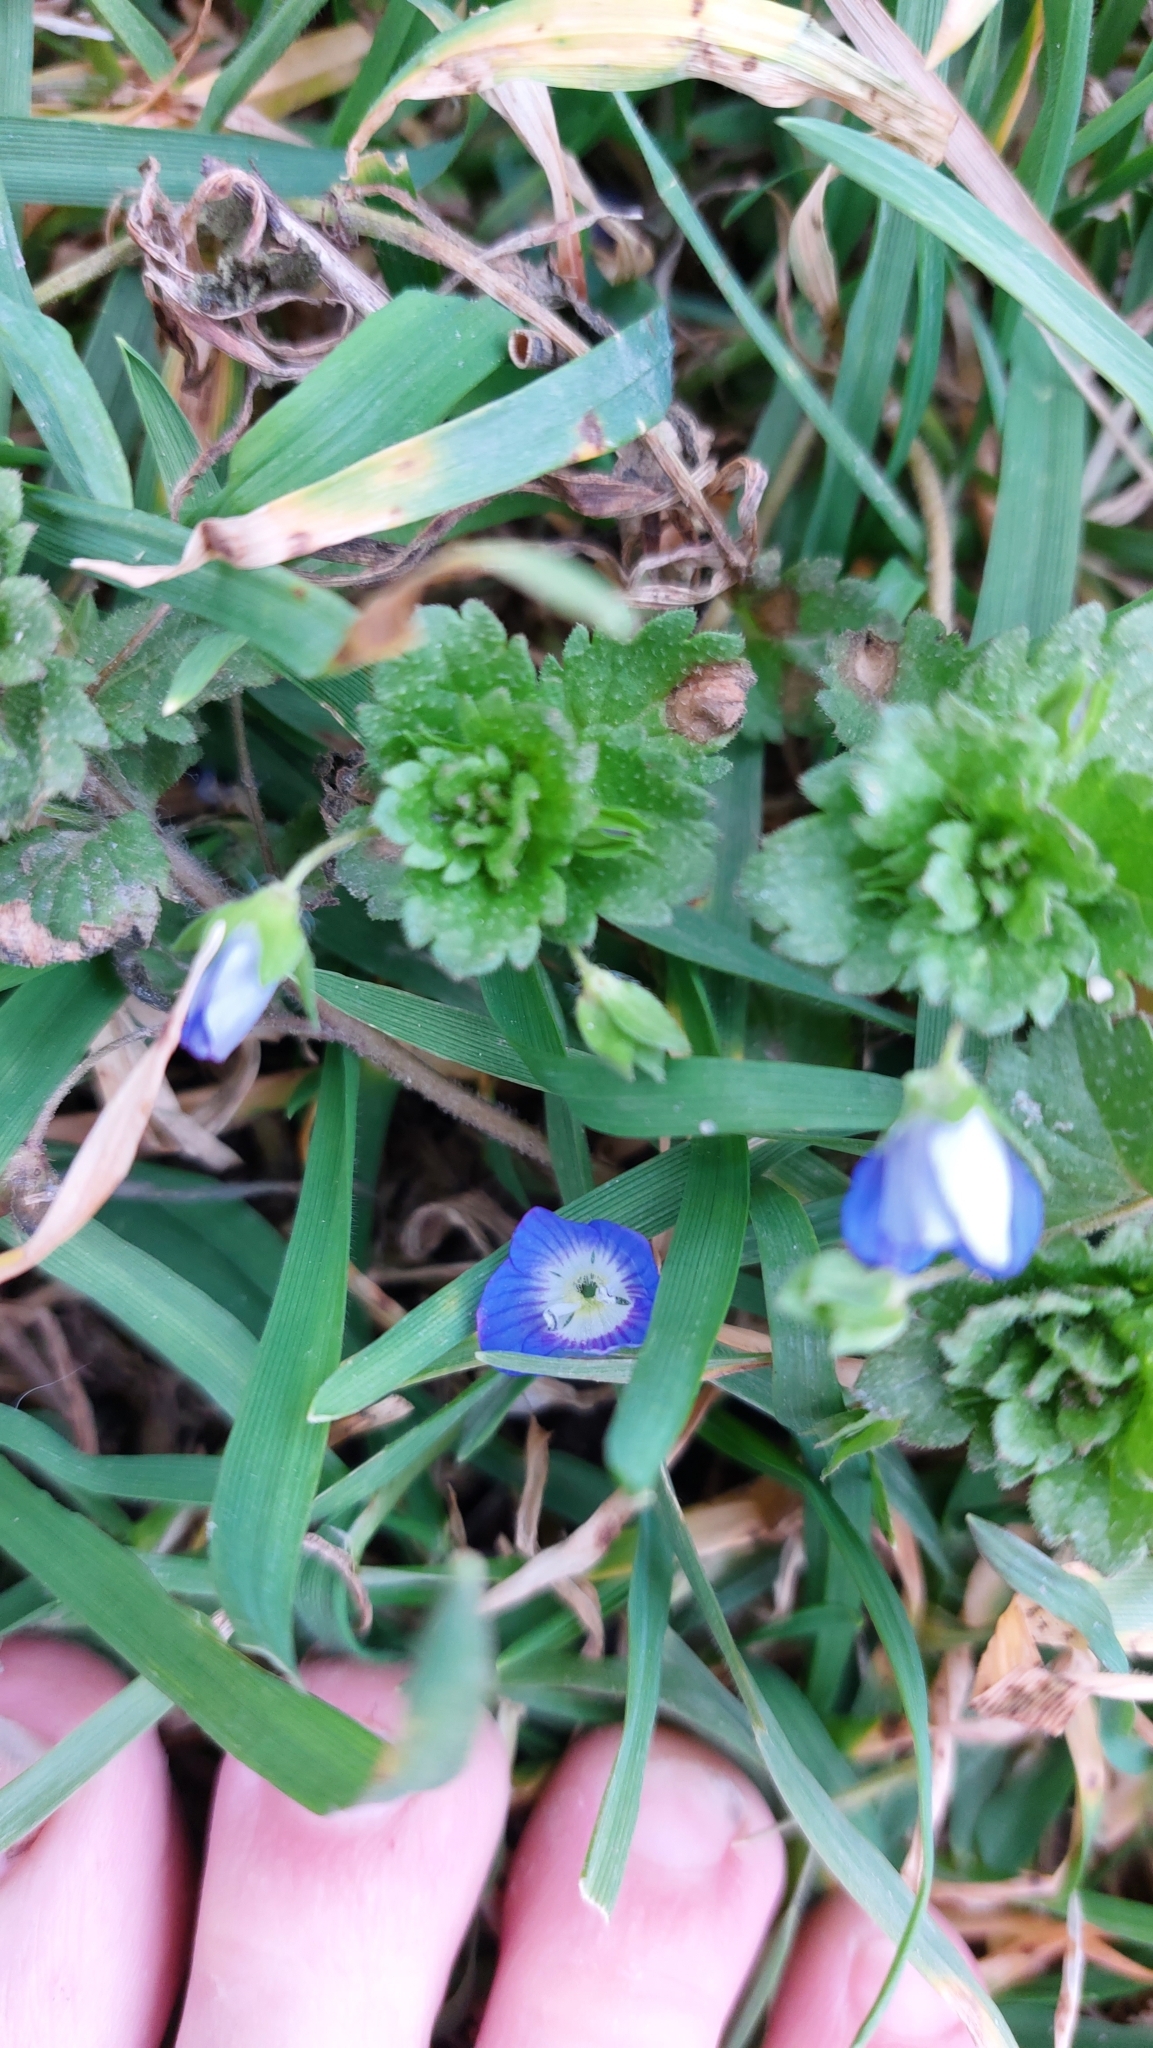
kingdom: Plantae
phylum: Tracheophyta
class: Magnoliopsida
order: Lamiales
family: Plantaginaceae
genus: Veronica
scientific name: Veronica persica
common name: Common field-speedwell
